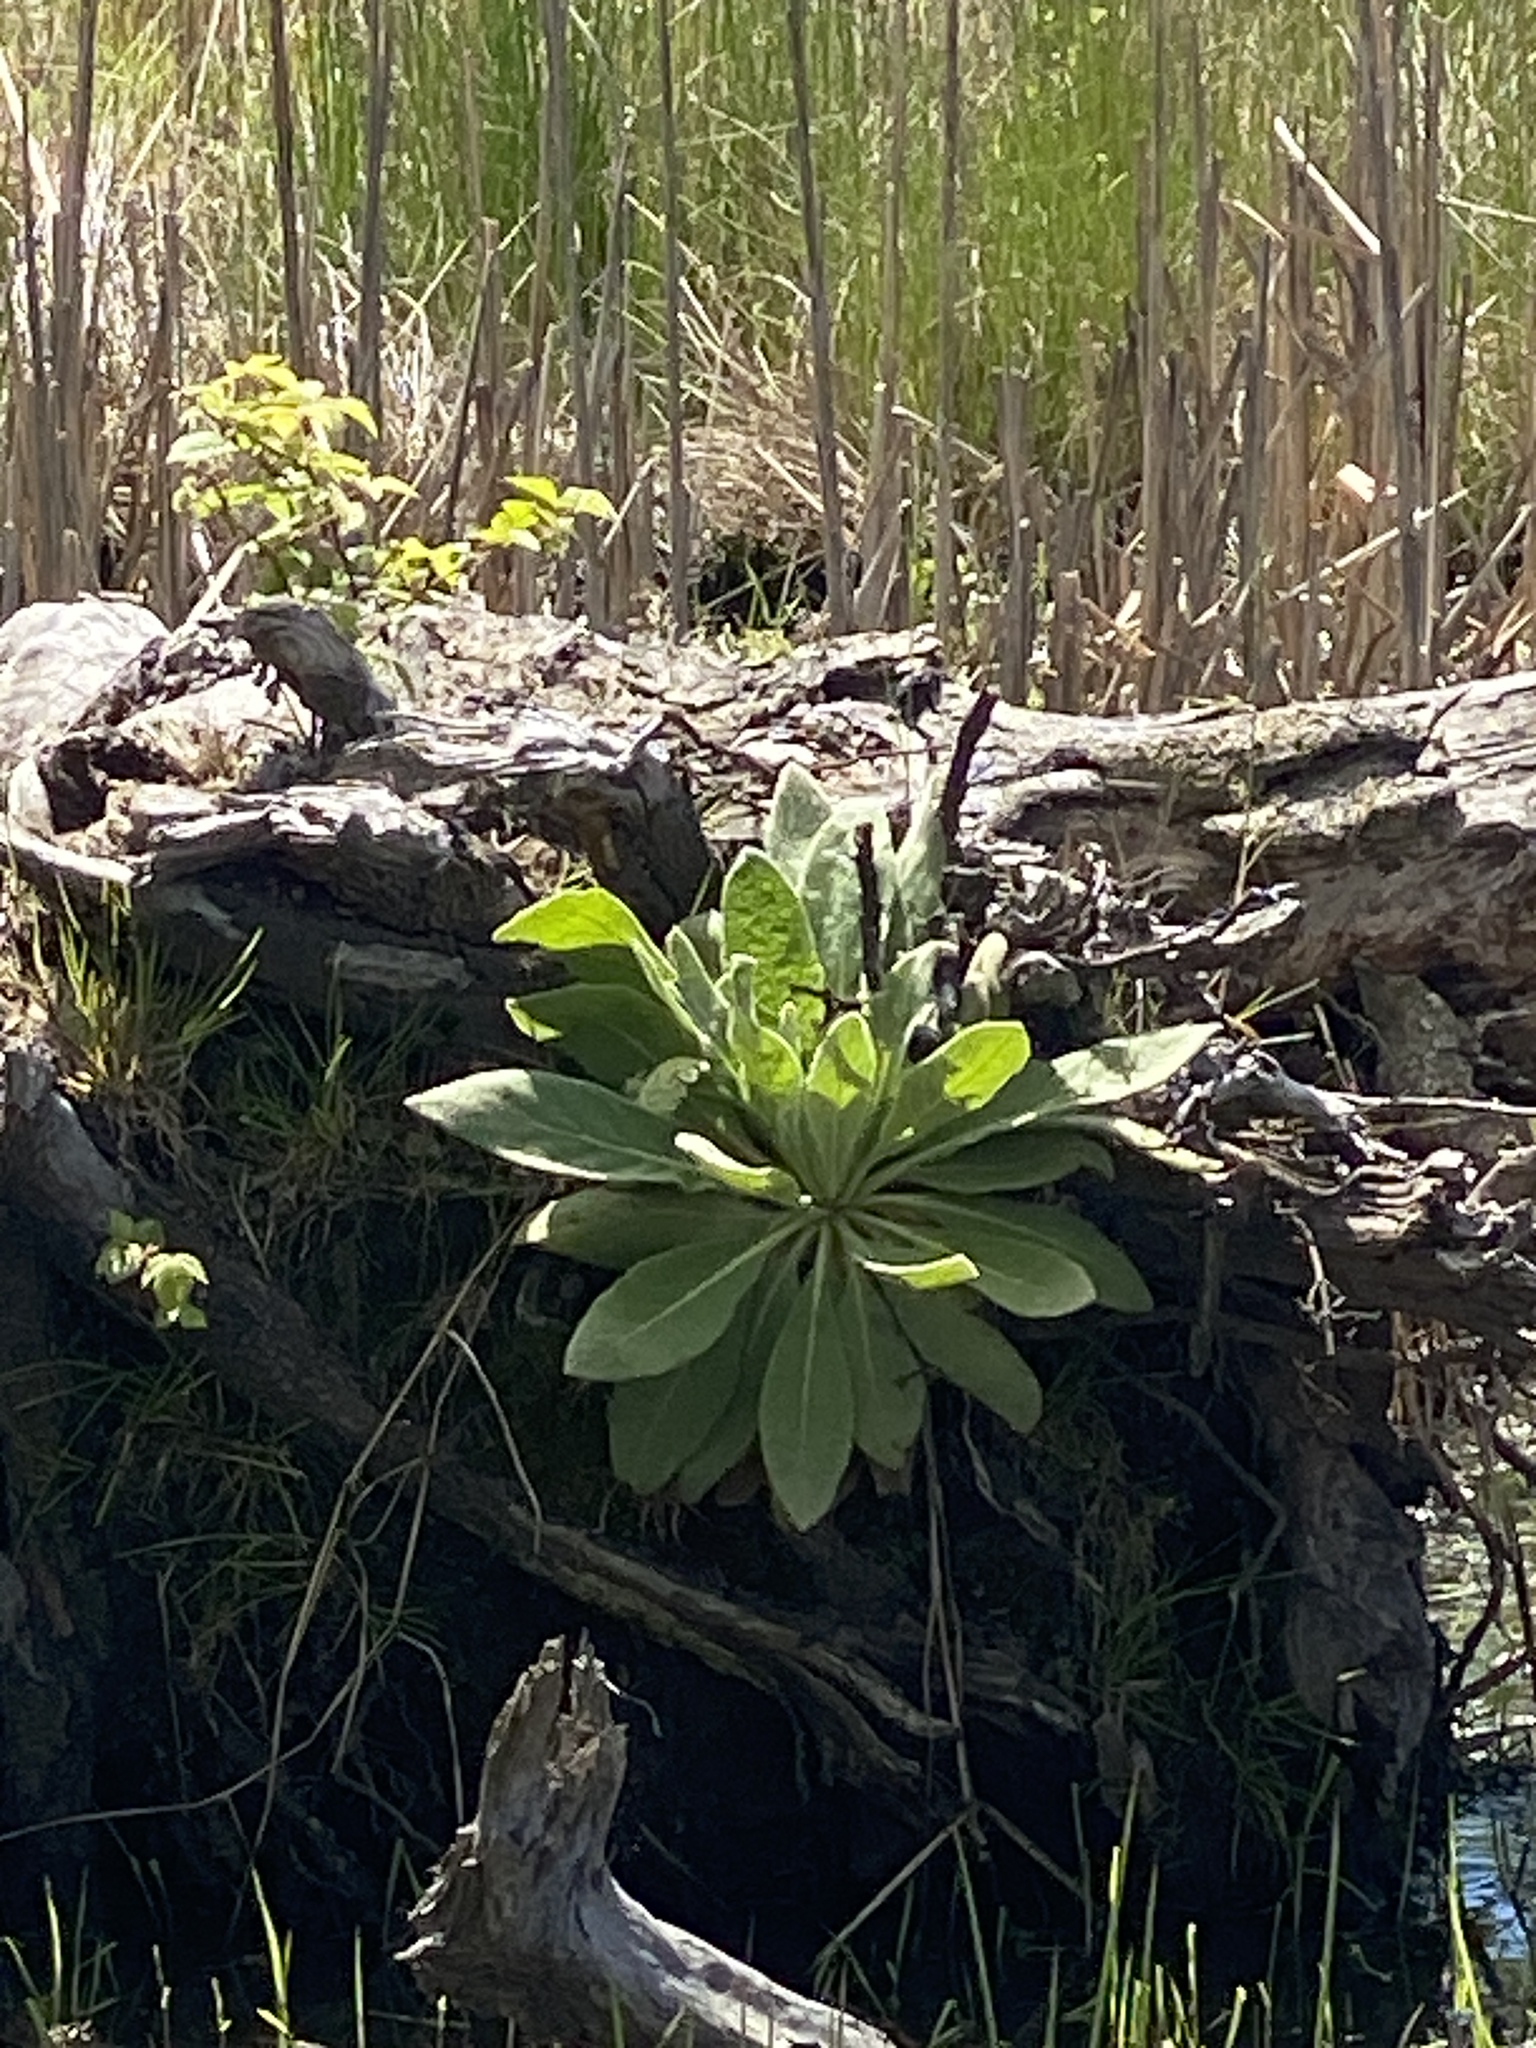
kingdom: Plantae
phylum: Tracheophyta
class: Magnoliopsida
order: Lamiales
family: Scrophulariaceae
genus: Verbascum
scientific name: Verbascum thapsus
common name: Common mullein
